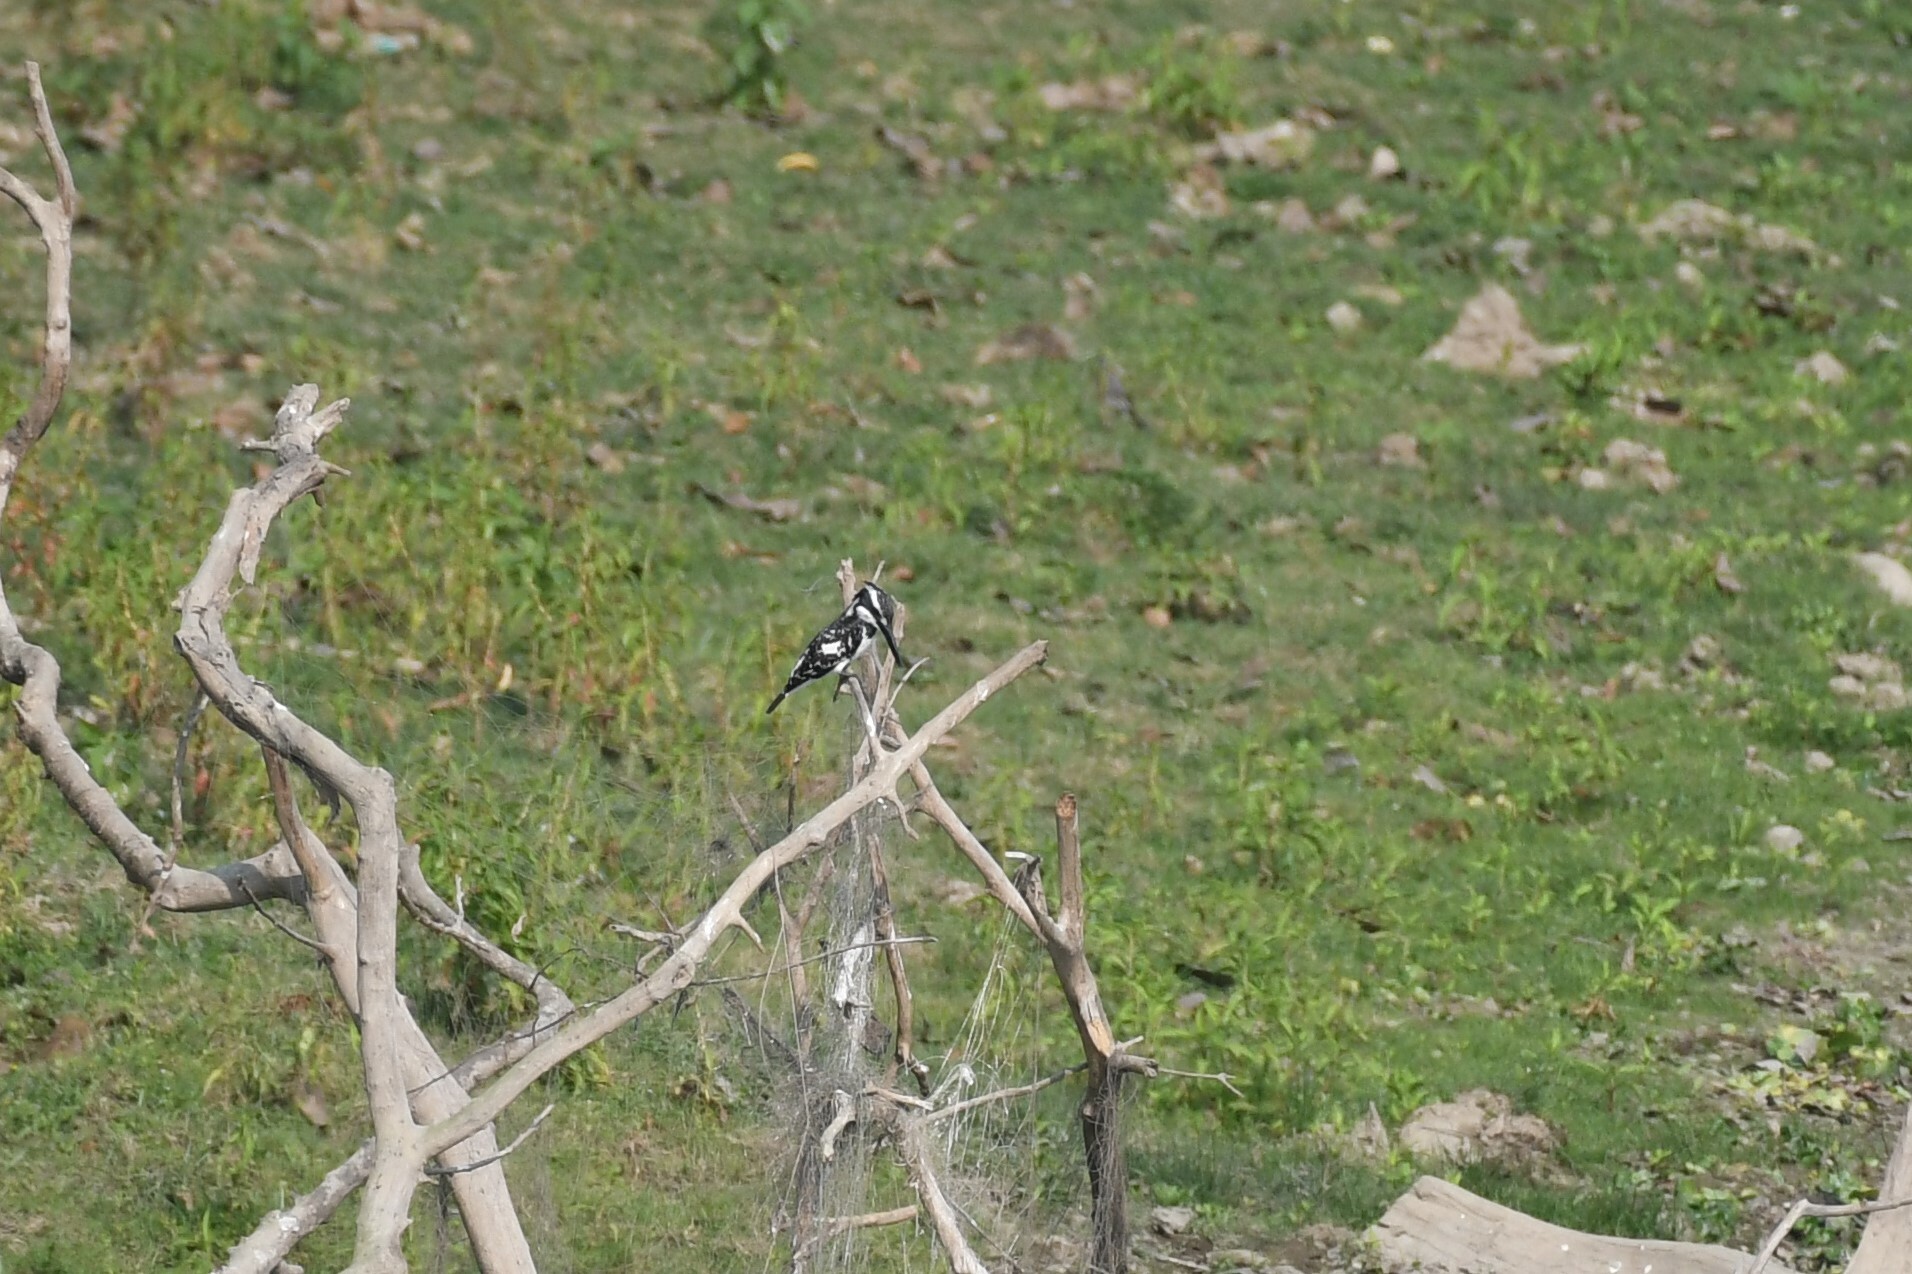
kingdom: Animalia
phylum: Chordata
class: Aves
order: Coraciiformes
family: Alcedinidae
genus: Ceryle
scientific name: Ceryle rudis
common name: Pied kingfisher
